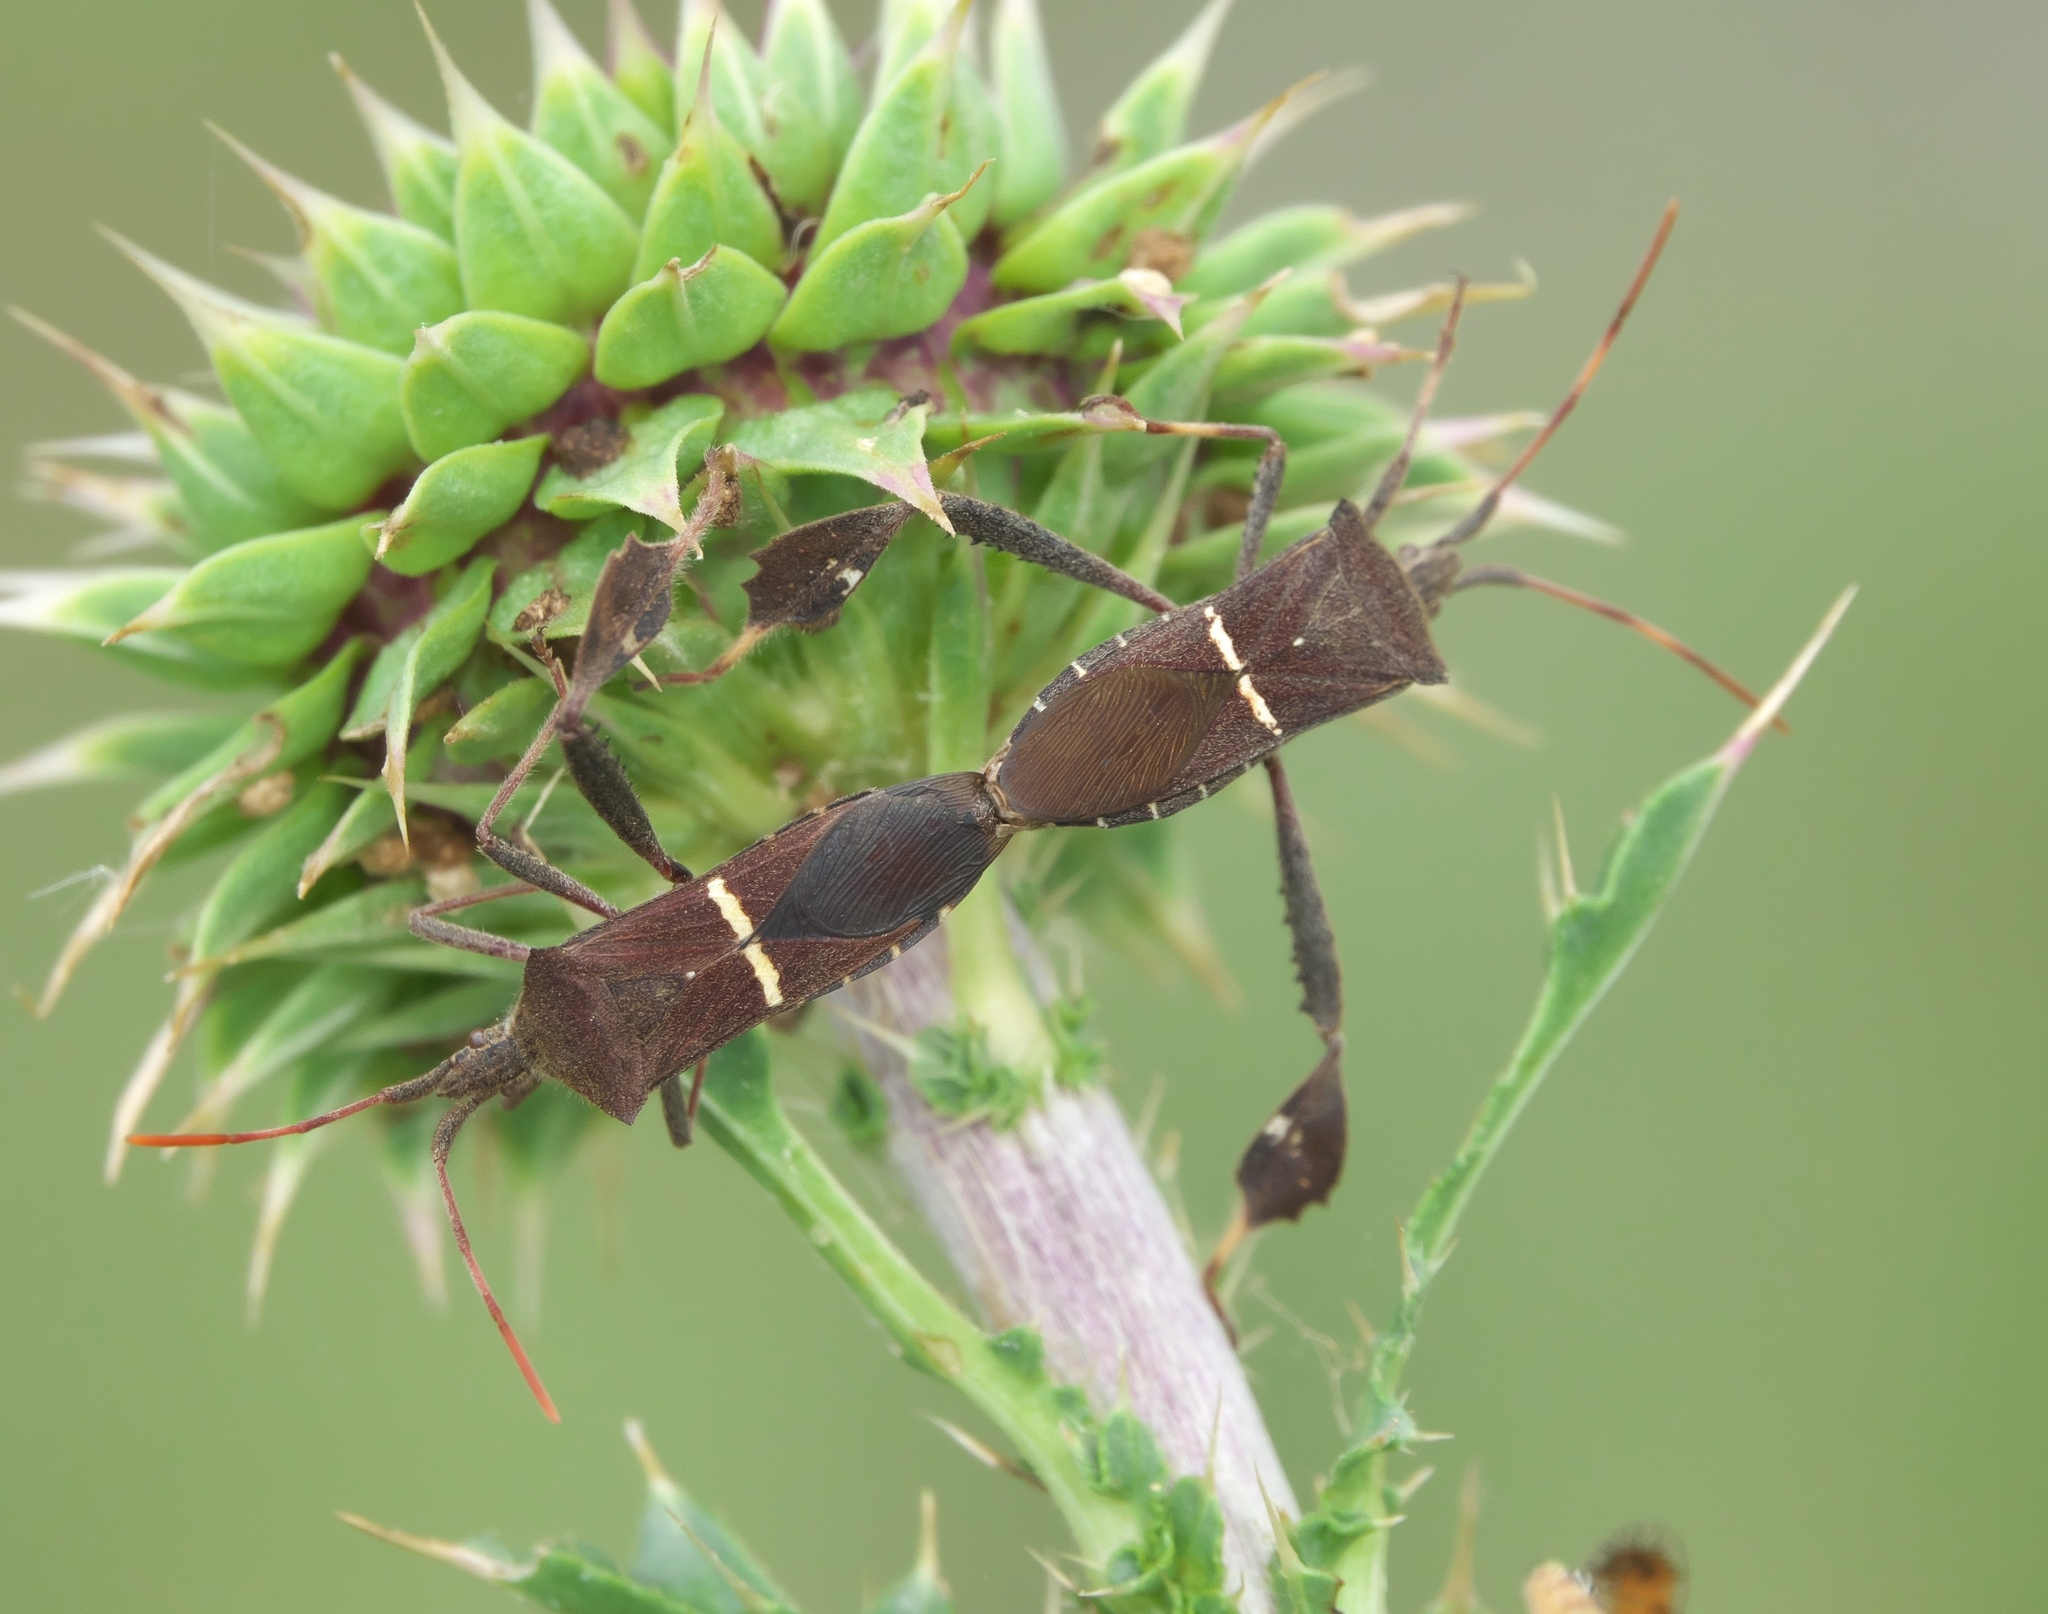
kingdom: Animalia
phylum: Arthropoda
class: Insecta
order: Hemiptera
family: Coreidae
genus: Leptoglossus
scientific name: Leptoglossus phyllopus
